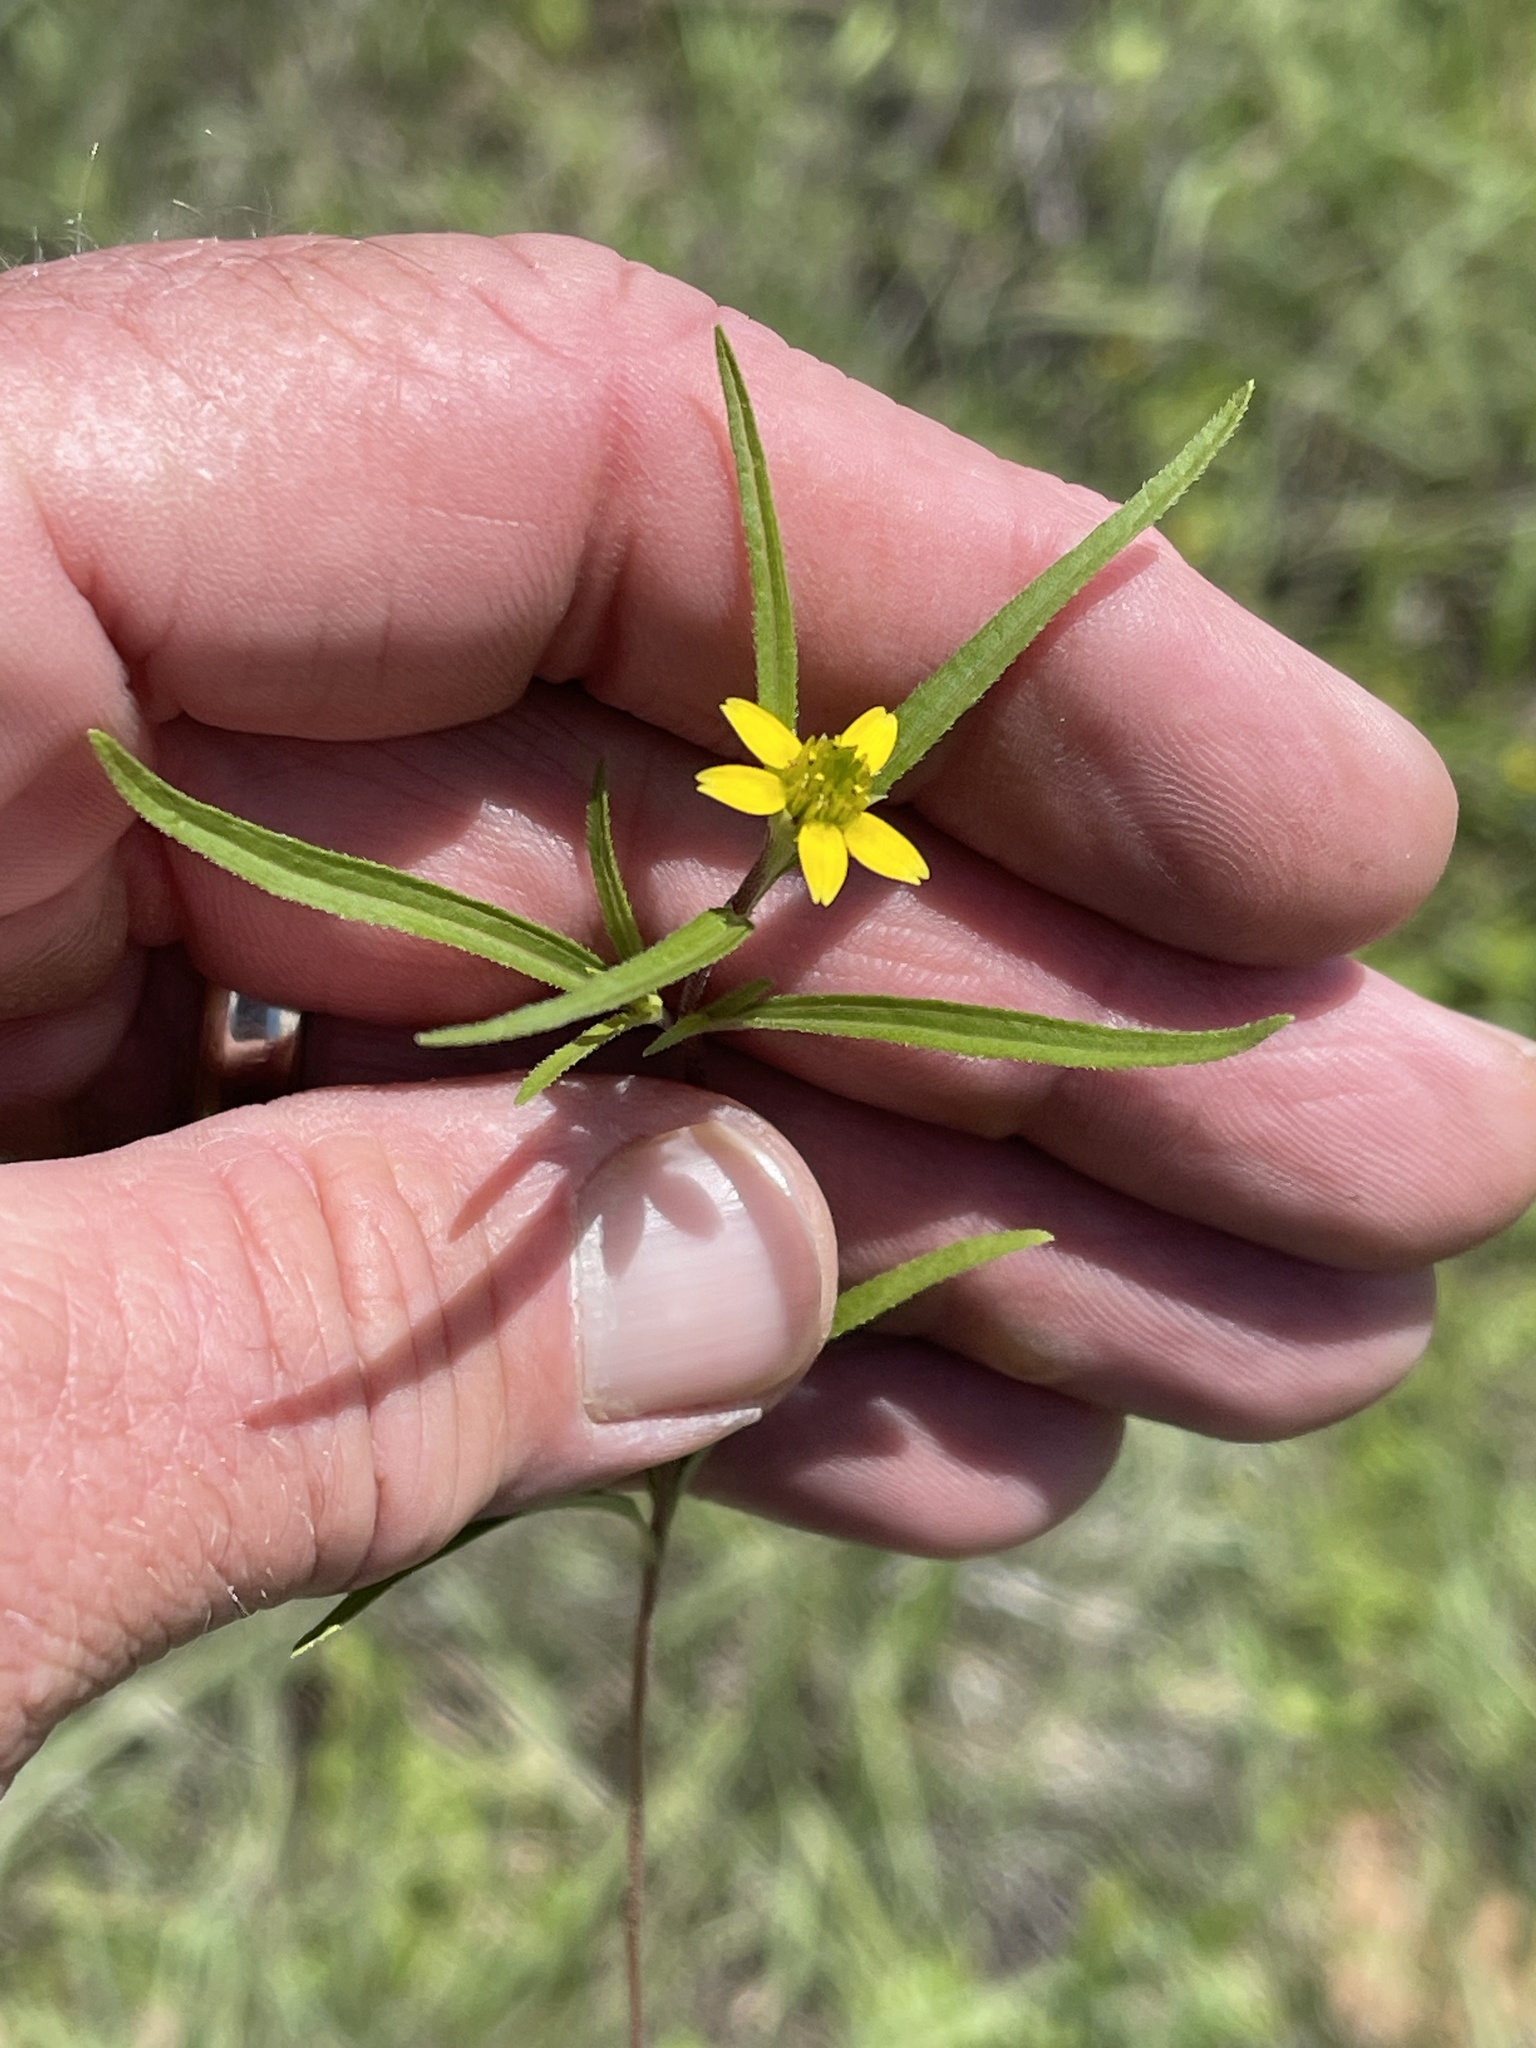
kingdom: Plantae
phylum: Tracheophyta
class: Magnoliopsida
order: Asterales
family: Asteraceae
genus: Sanvitalia
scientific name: Sanvitalia abertii
